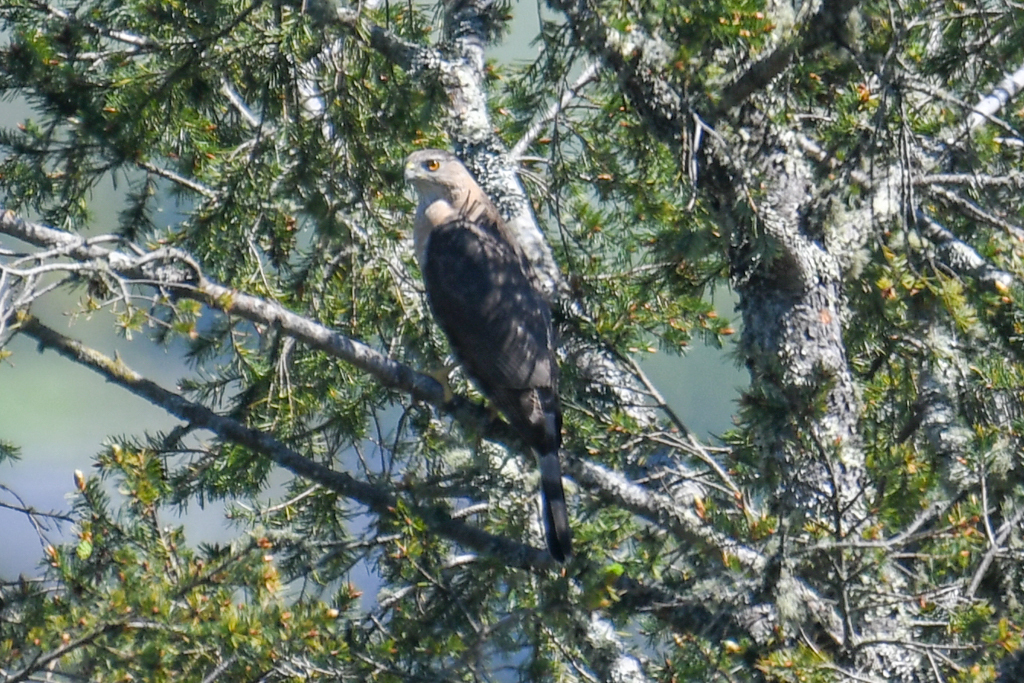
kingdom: Animalia
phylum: Chordata
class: Aves
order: Accipitriformes
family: Accipitridae
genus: Accipiter
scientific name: Accipiter cooperii
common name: Cooper's hawk
